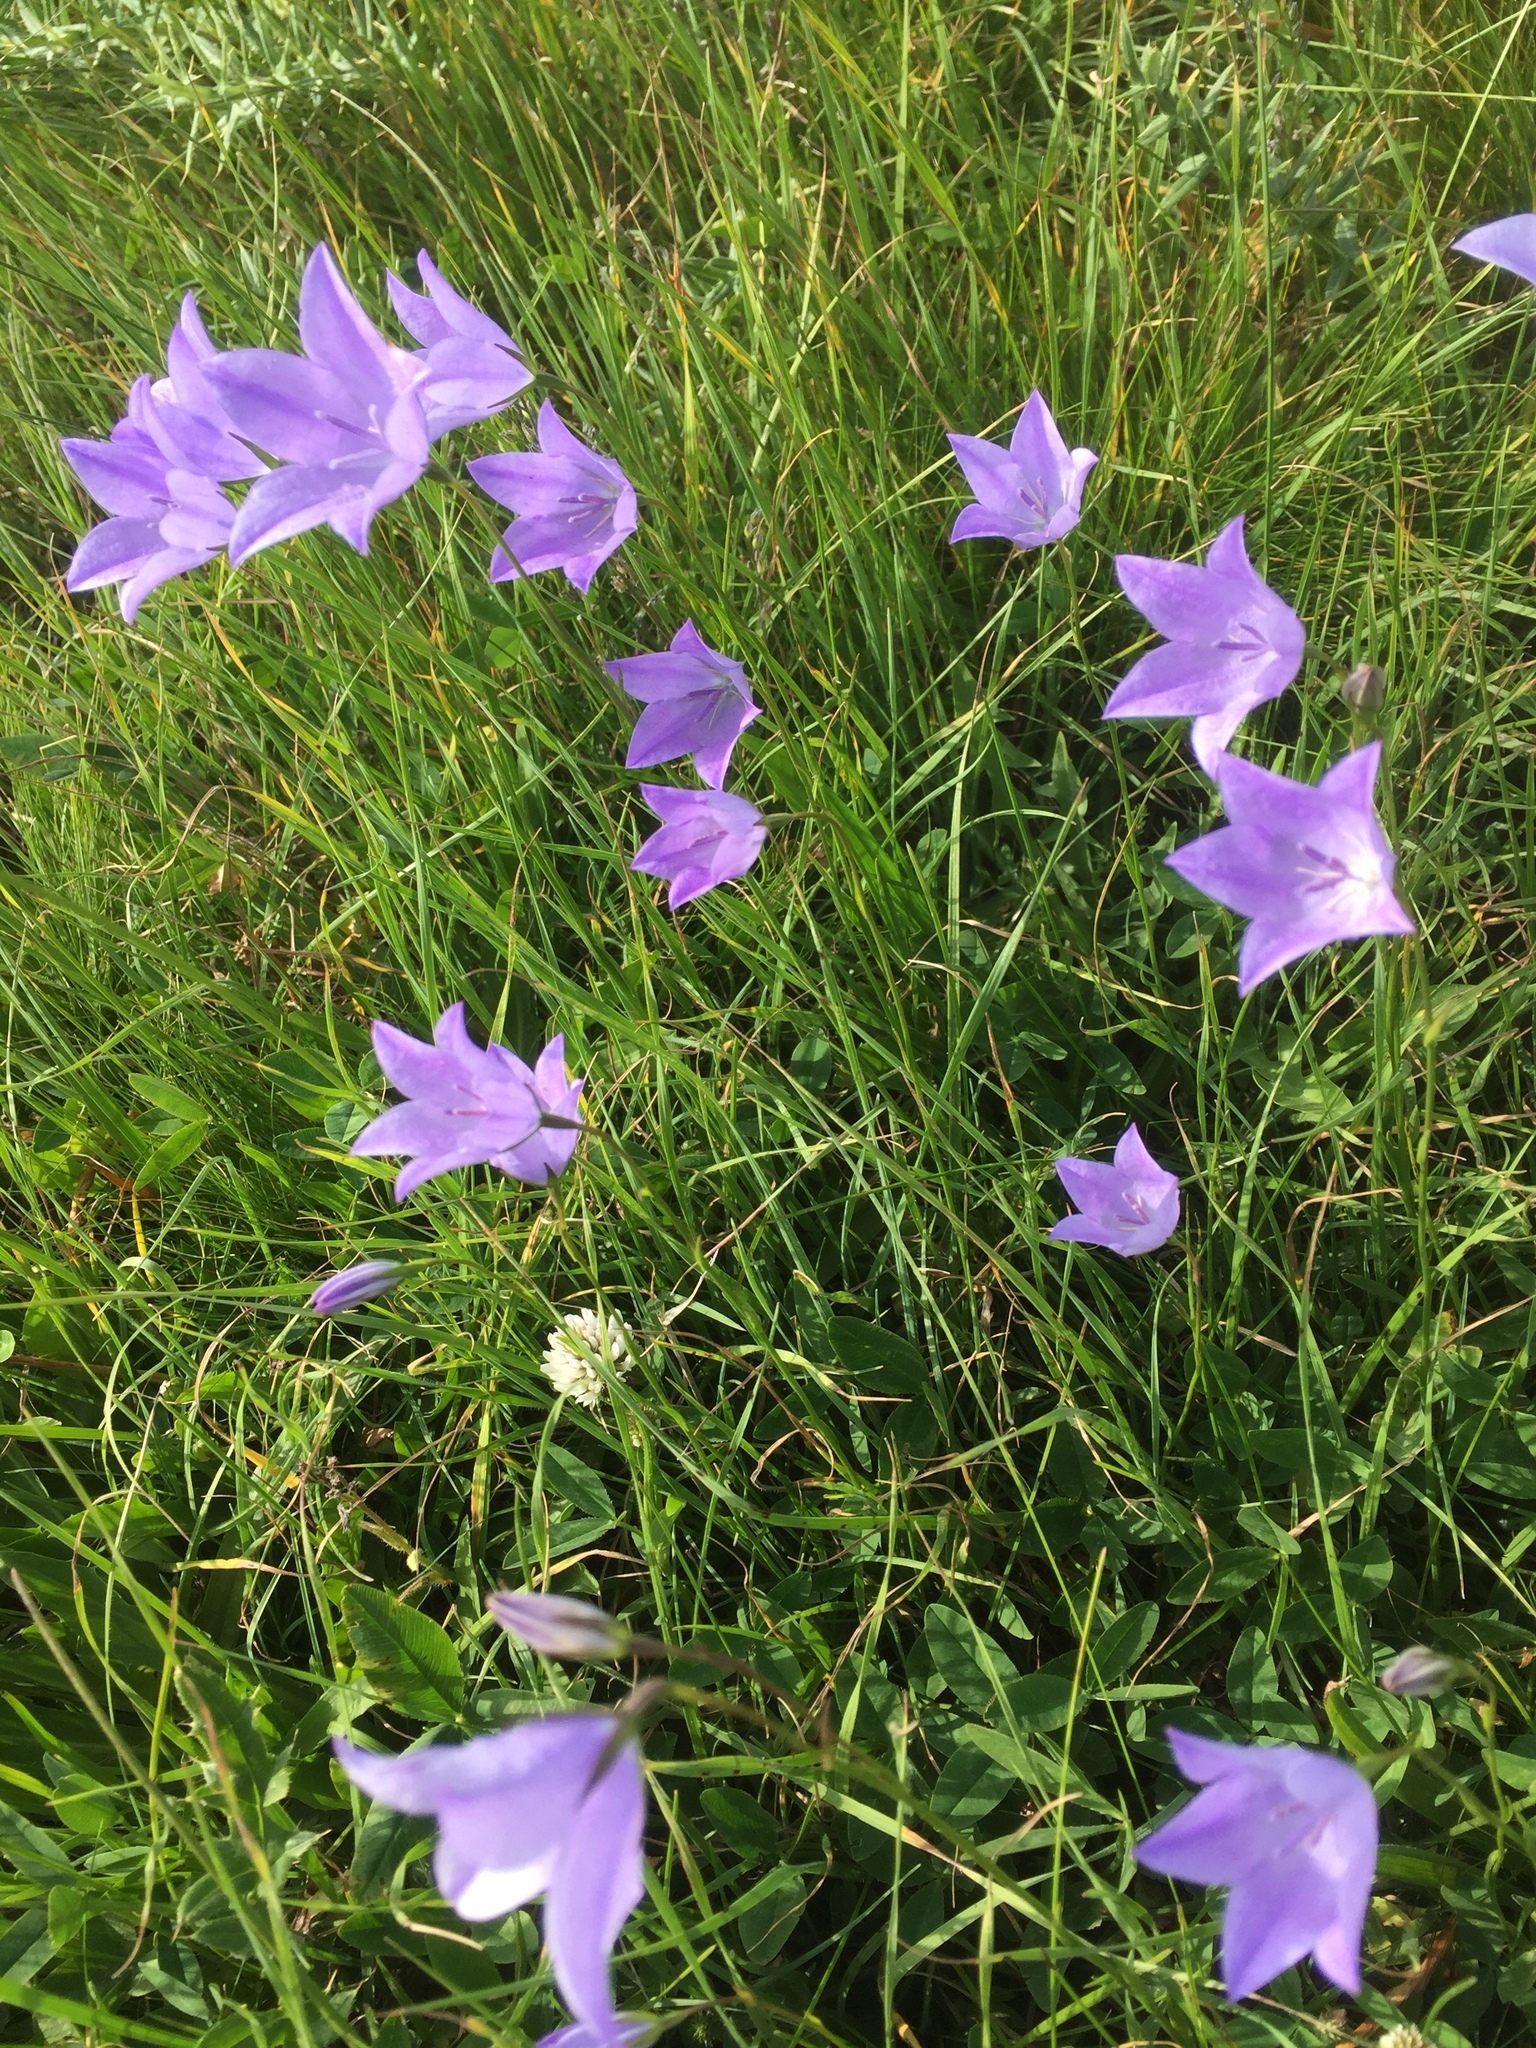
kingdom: Plantae
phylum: Tracheophyta
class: Magnoliopsida
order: Asterales
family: Campanulaceae
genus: Campanula
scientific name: Campanula persicifolia
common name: Peach-leaved bellflower
